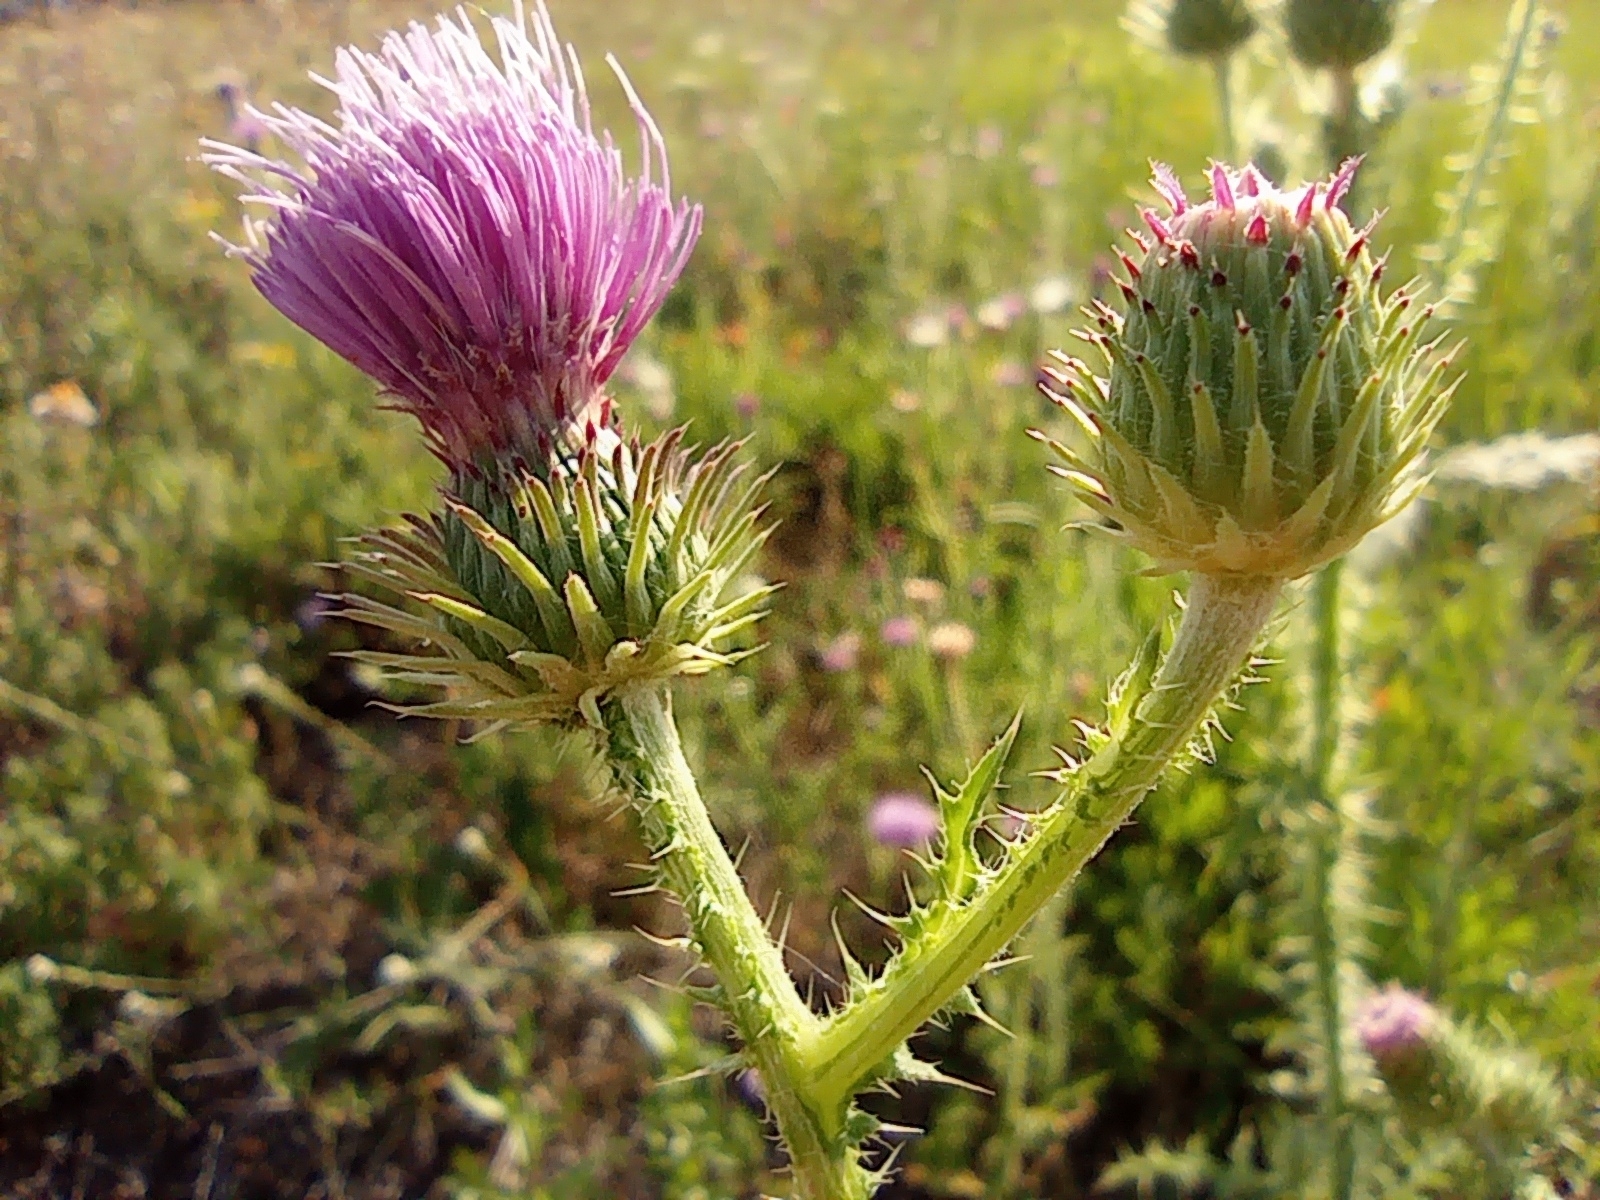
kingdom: Plantae
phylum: Tracheophyta
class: Magnoliopsida
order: Asterales
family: Asteraceae
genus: Carduus
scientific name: Carduus acanthoides
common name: Plumeless thistle
